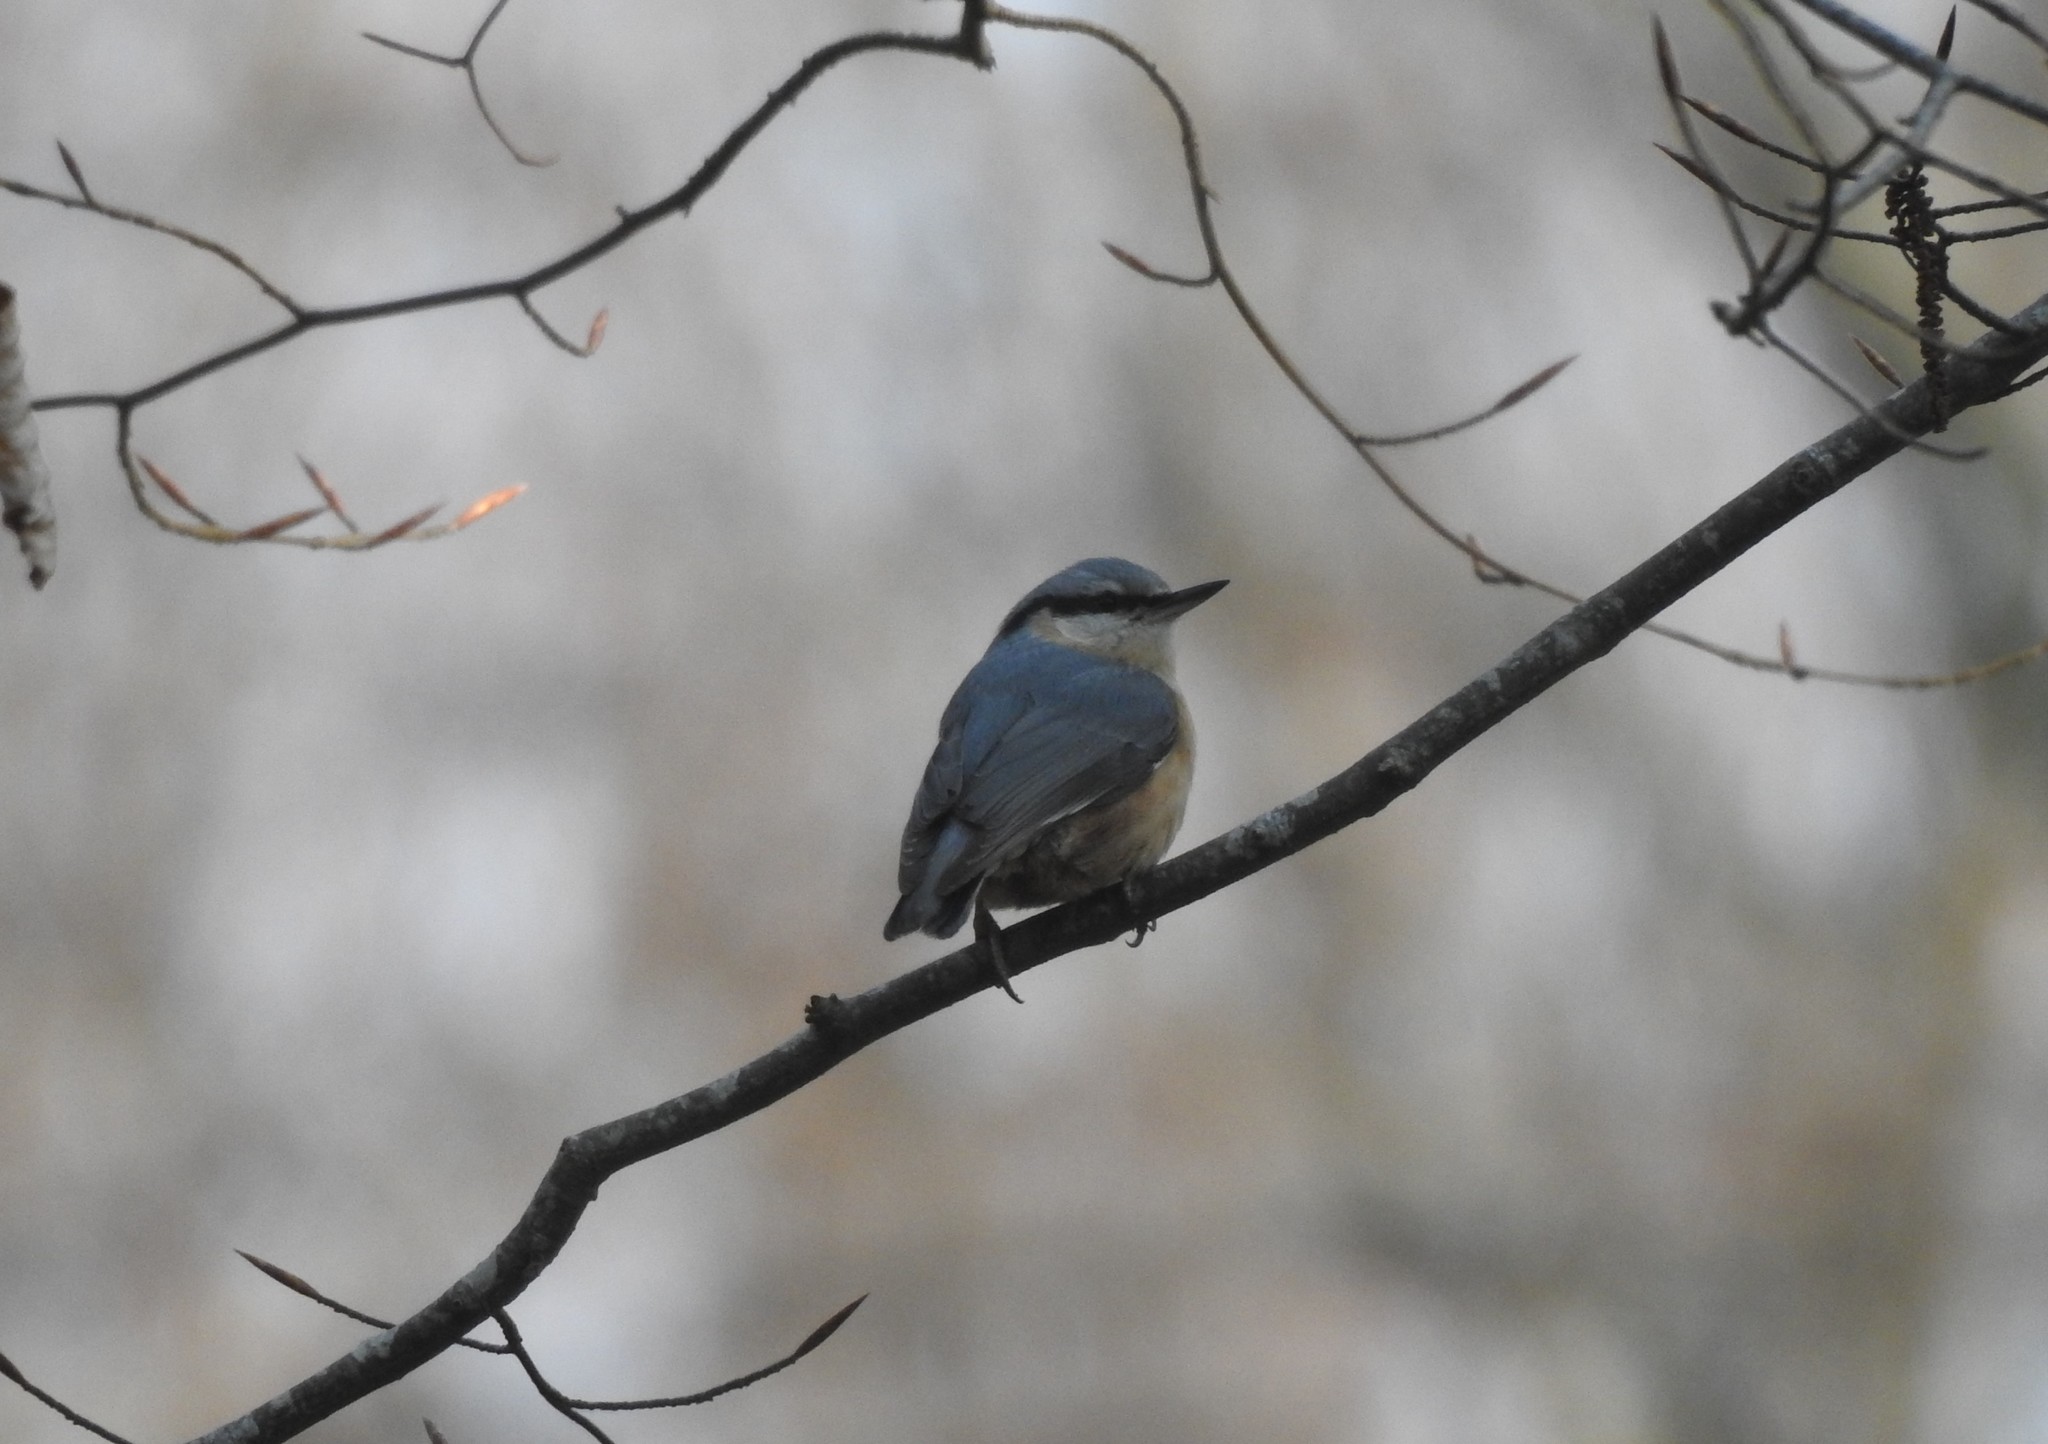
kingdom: Animalia
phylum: Chordata
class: Aves
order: Passeriformes
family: Sittidae
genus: Sitta
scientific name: Sitta europaea
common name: Eurasian nuthatch
